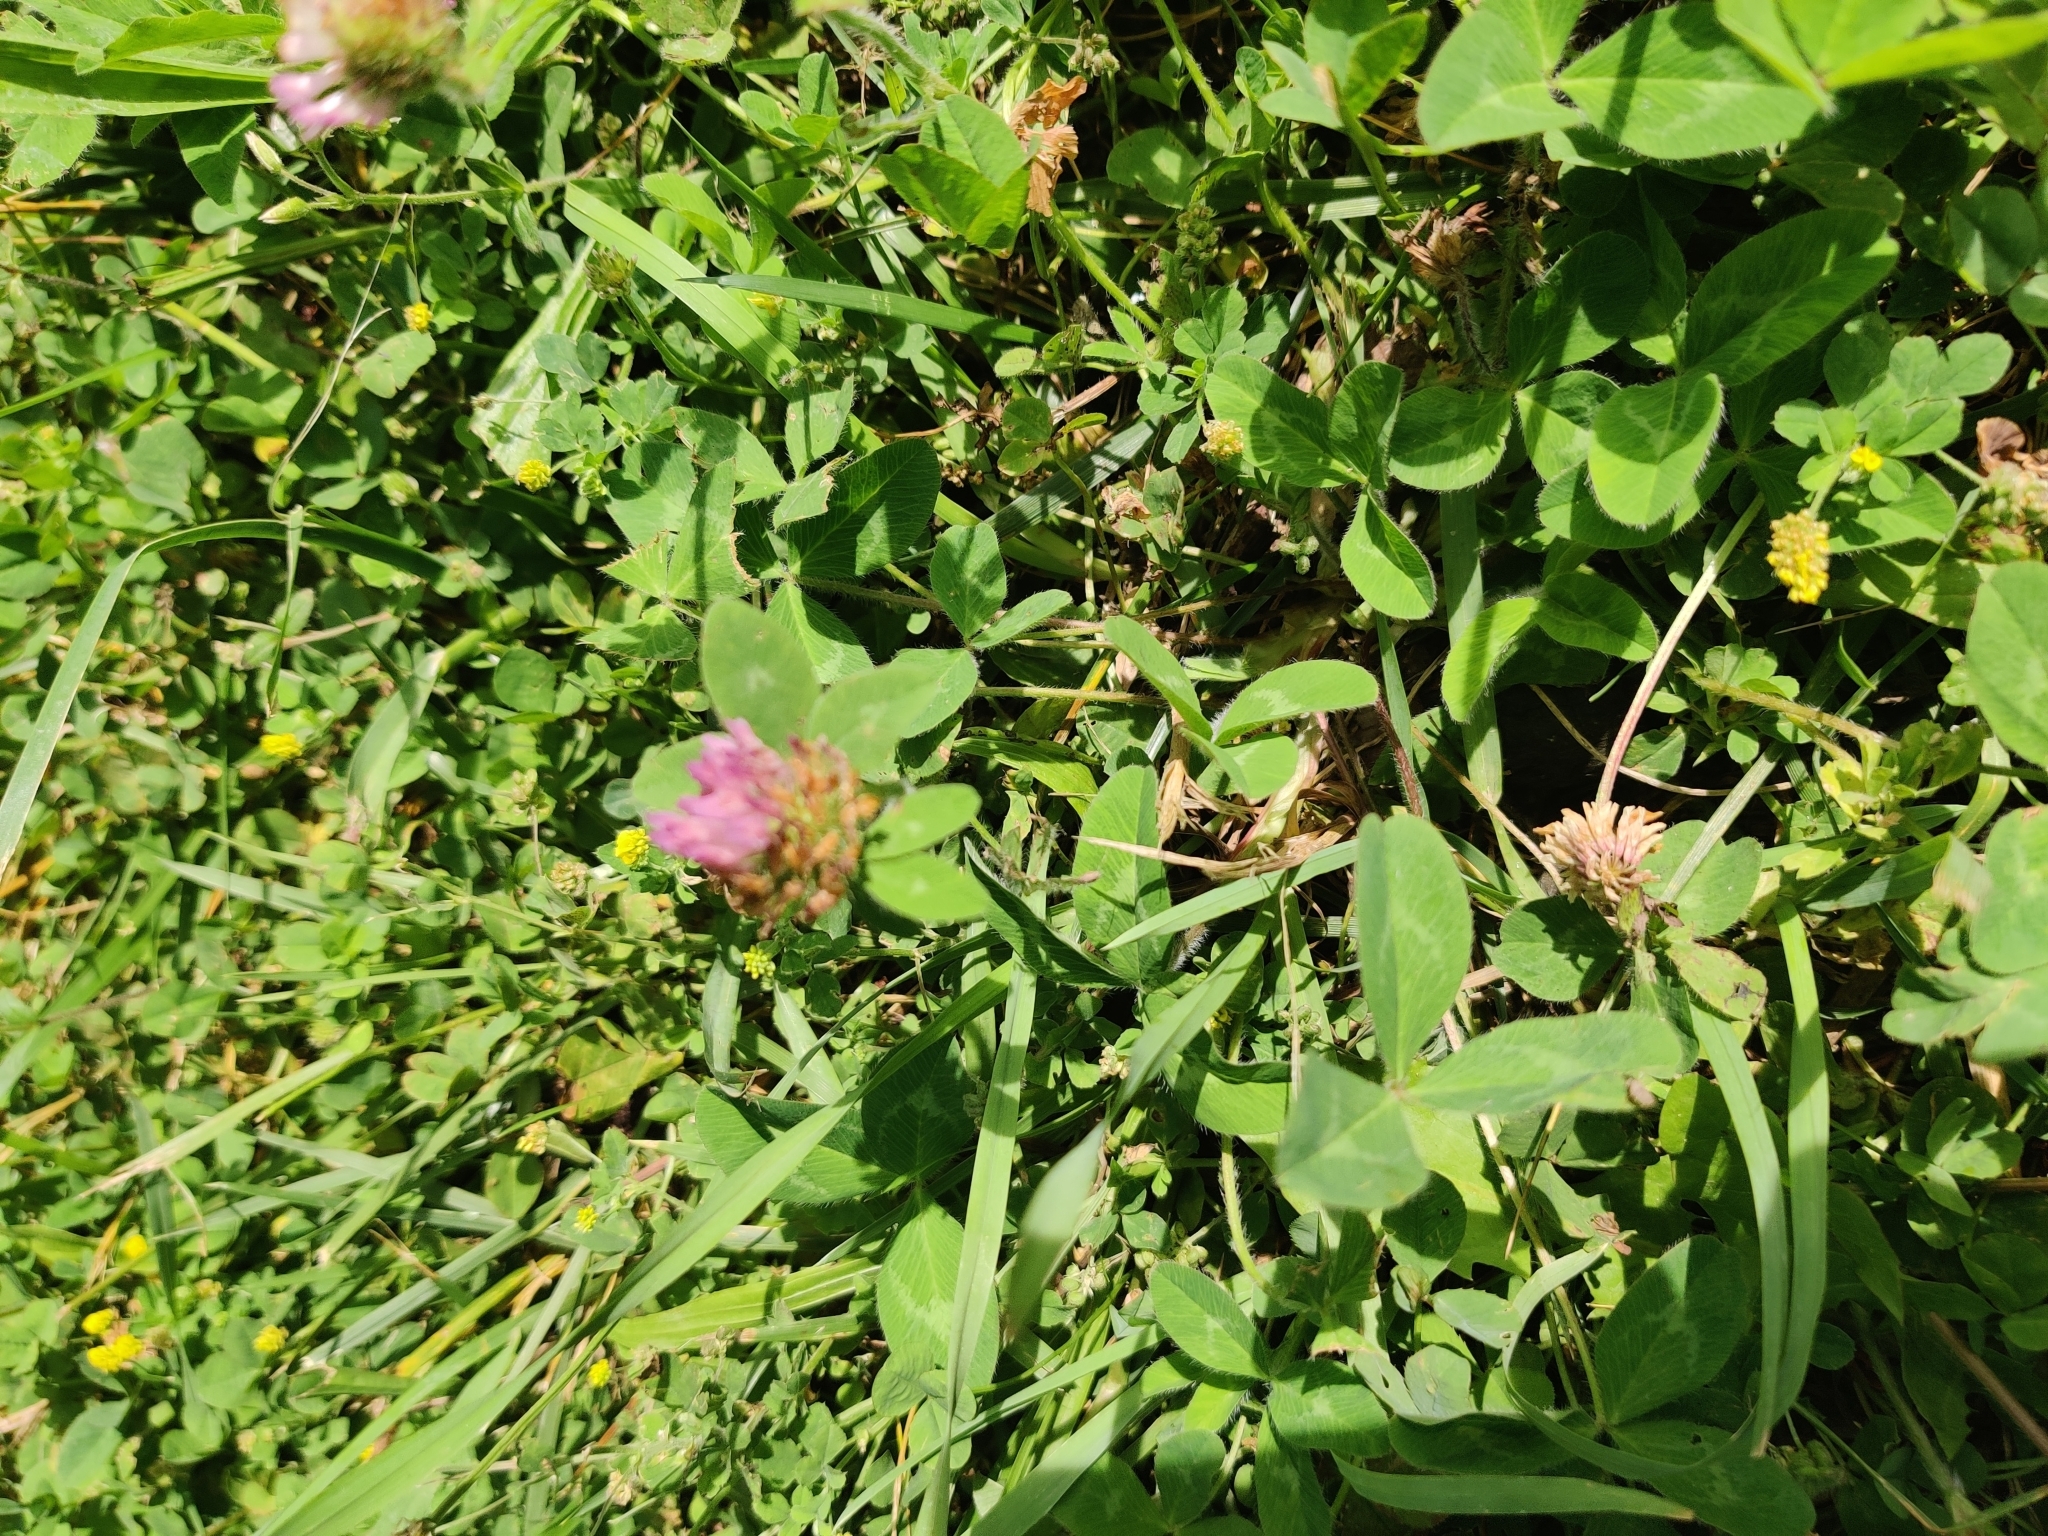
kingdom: Plantae
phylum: Tracheophyta
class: Magnoliopsida
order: Fabales
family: Fabaceae
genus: Trifolium
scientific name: Trifolium pratense
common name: Red clover
